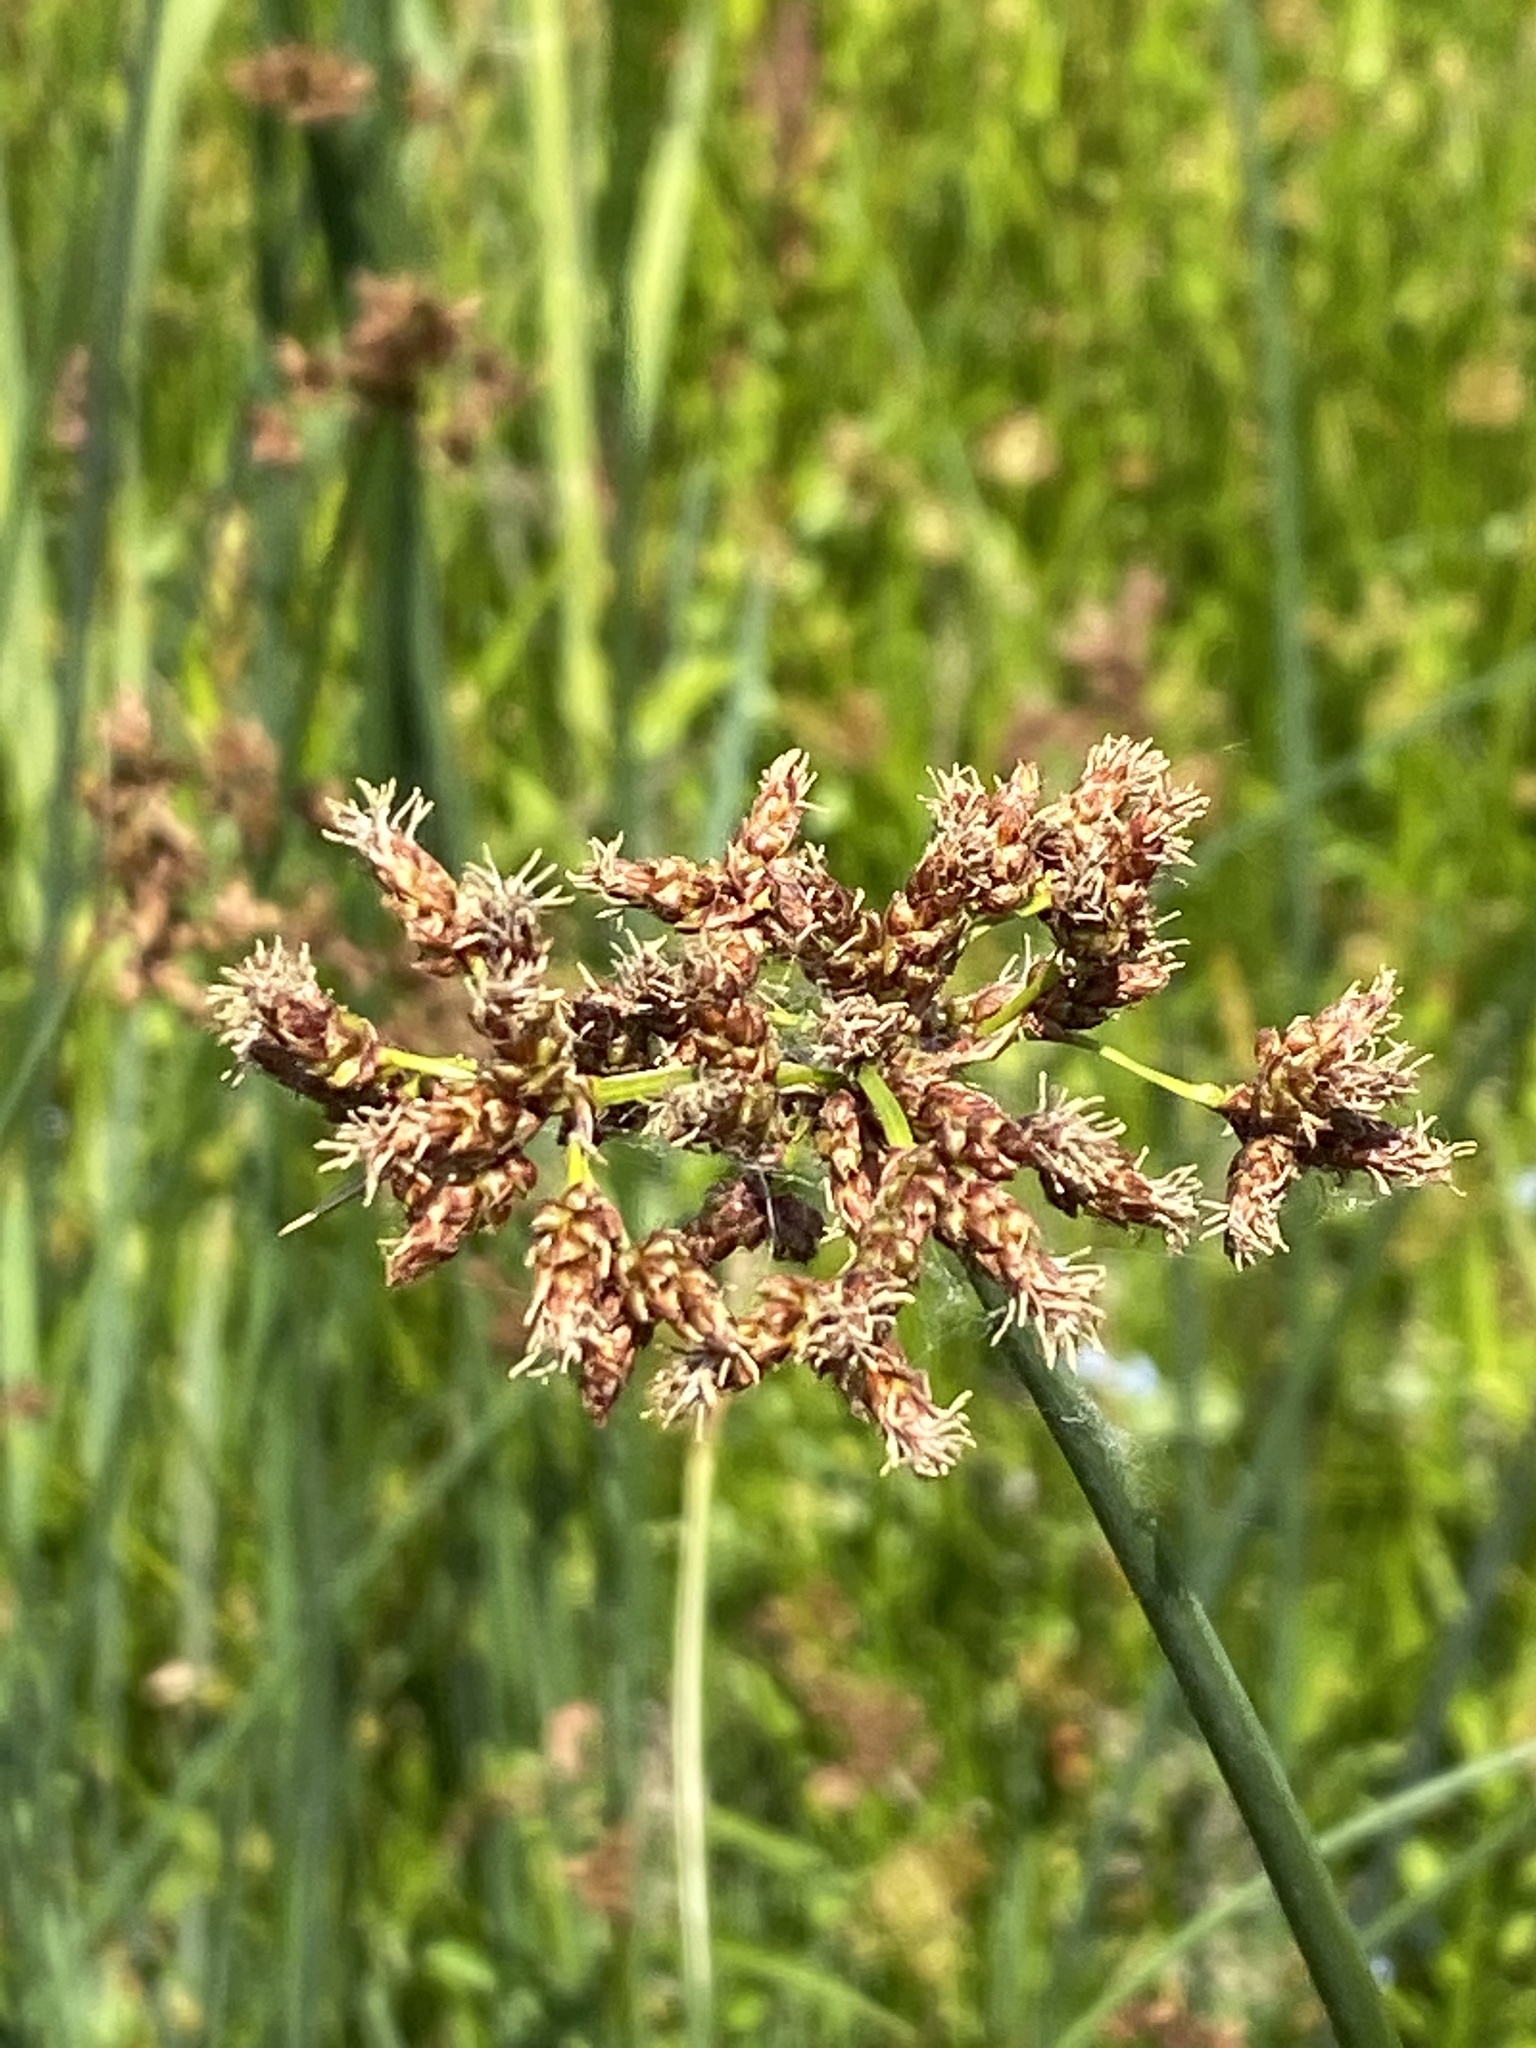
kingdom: Plantae
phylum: Tracheophyta
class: Liliopsida
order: Poales
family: Cyperaceae
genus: Schoenoplectus
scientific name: Schoenoplectus tabernaemontani
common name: Grey club-rush
